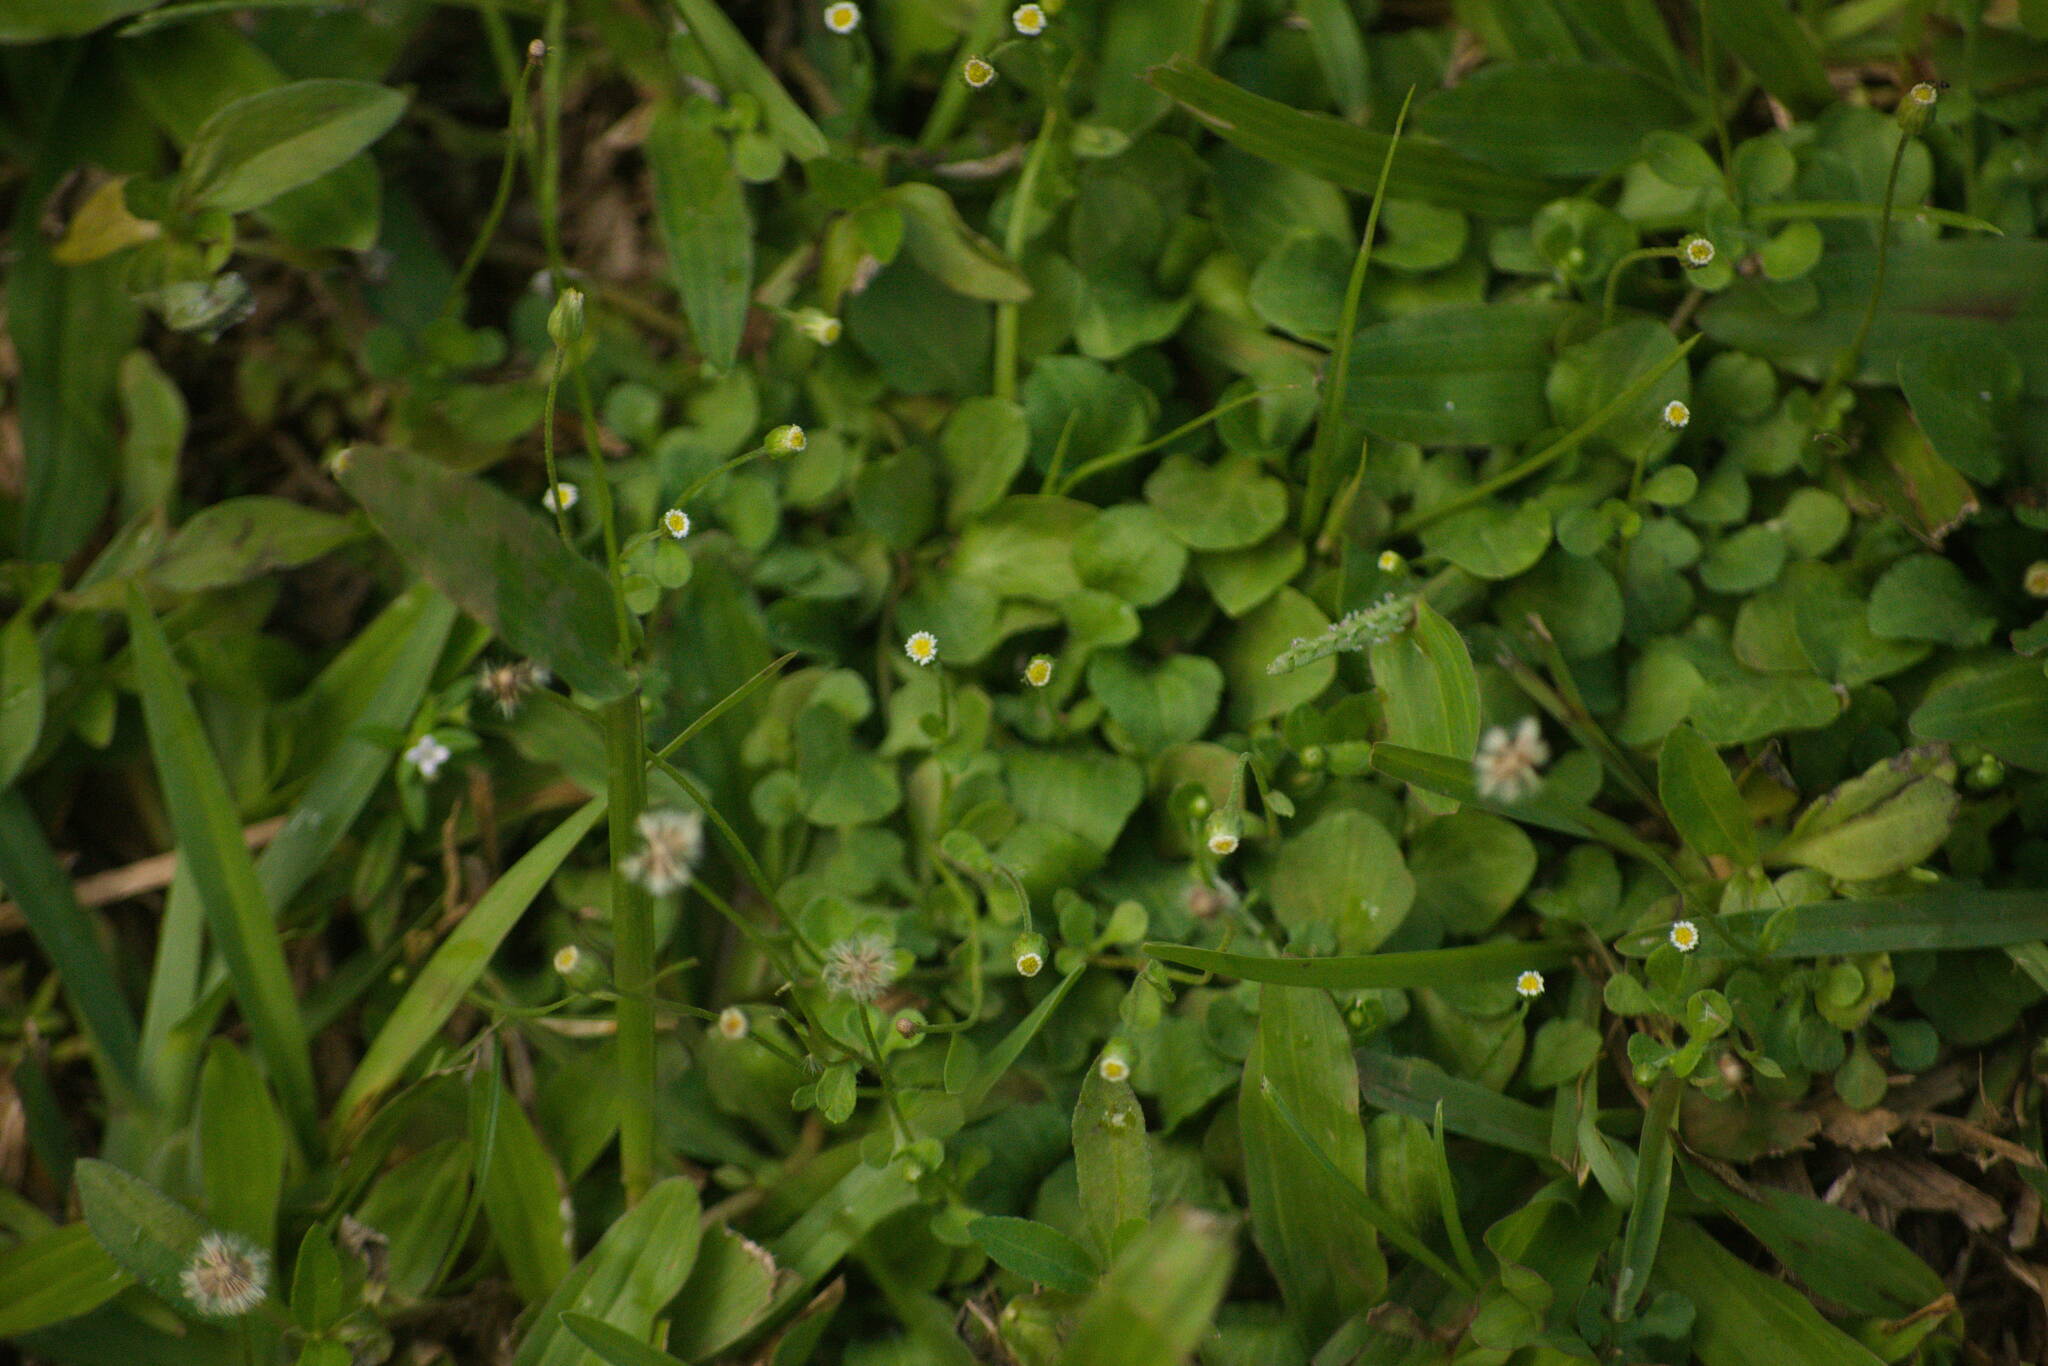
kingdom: Plantae
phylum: Tracheophyta
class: Magnoliopsida
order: Asterales
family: Asteraceae
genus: Erigeron
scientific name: Erigeron bellioides
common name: Bellorita
